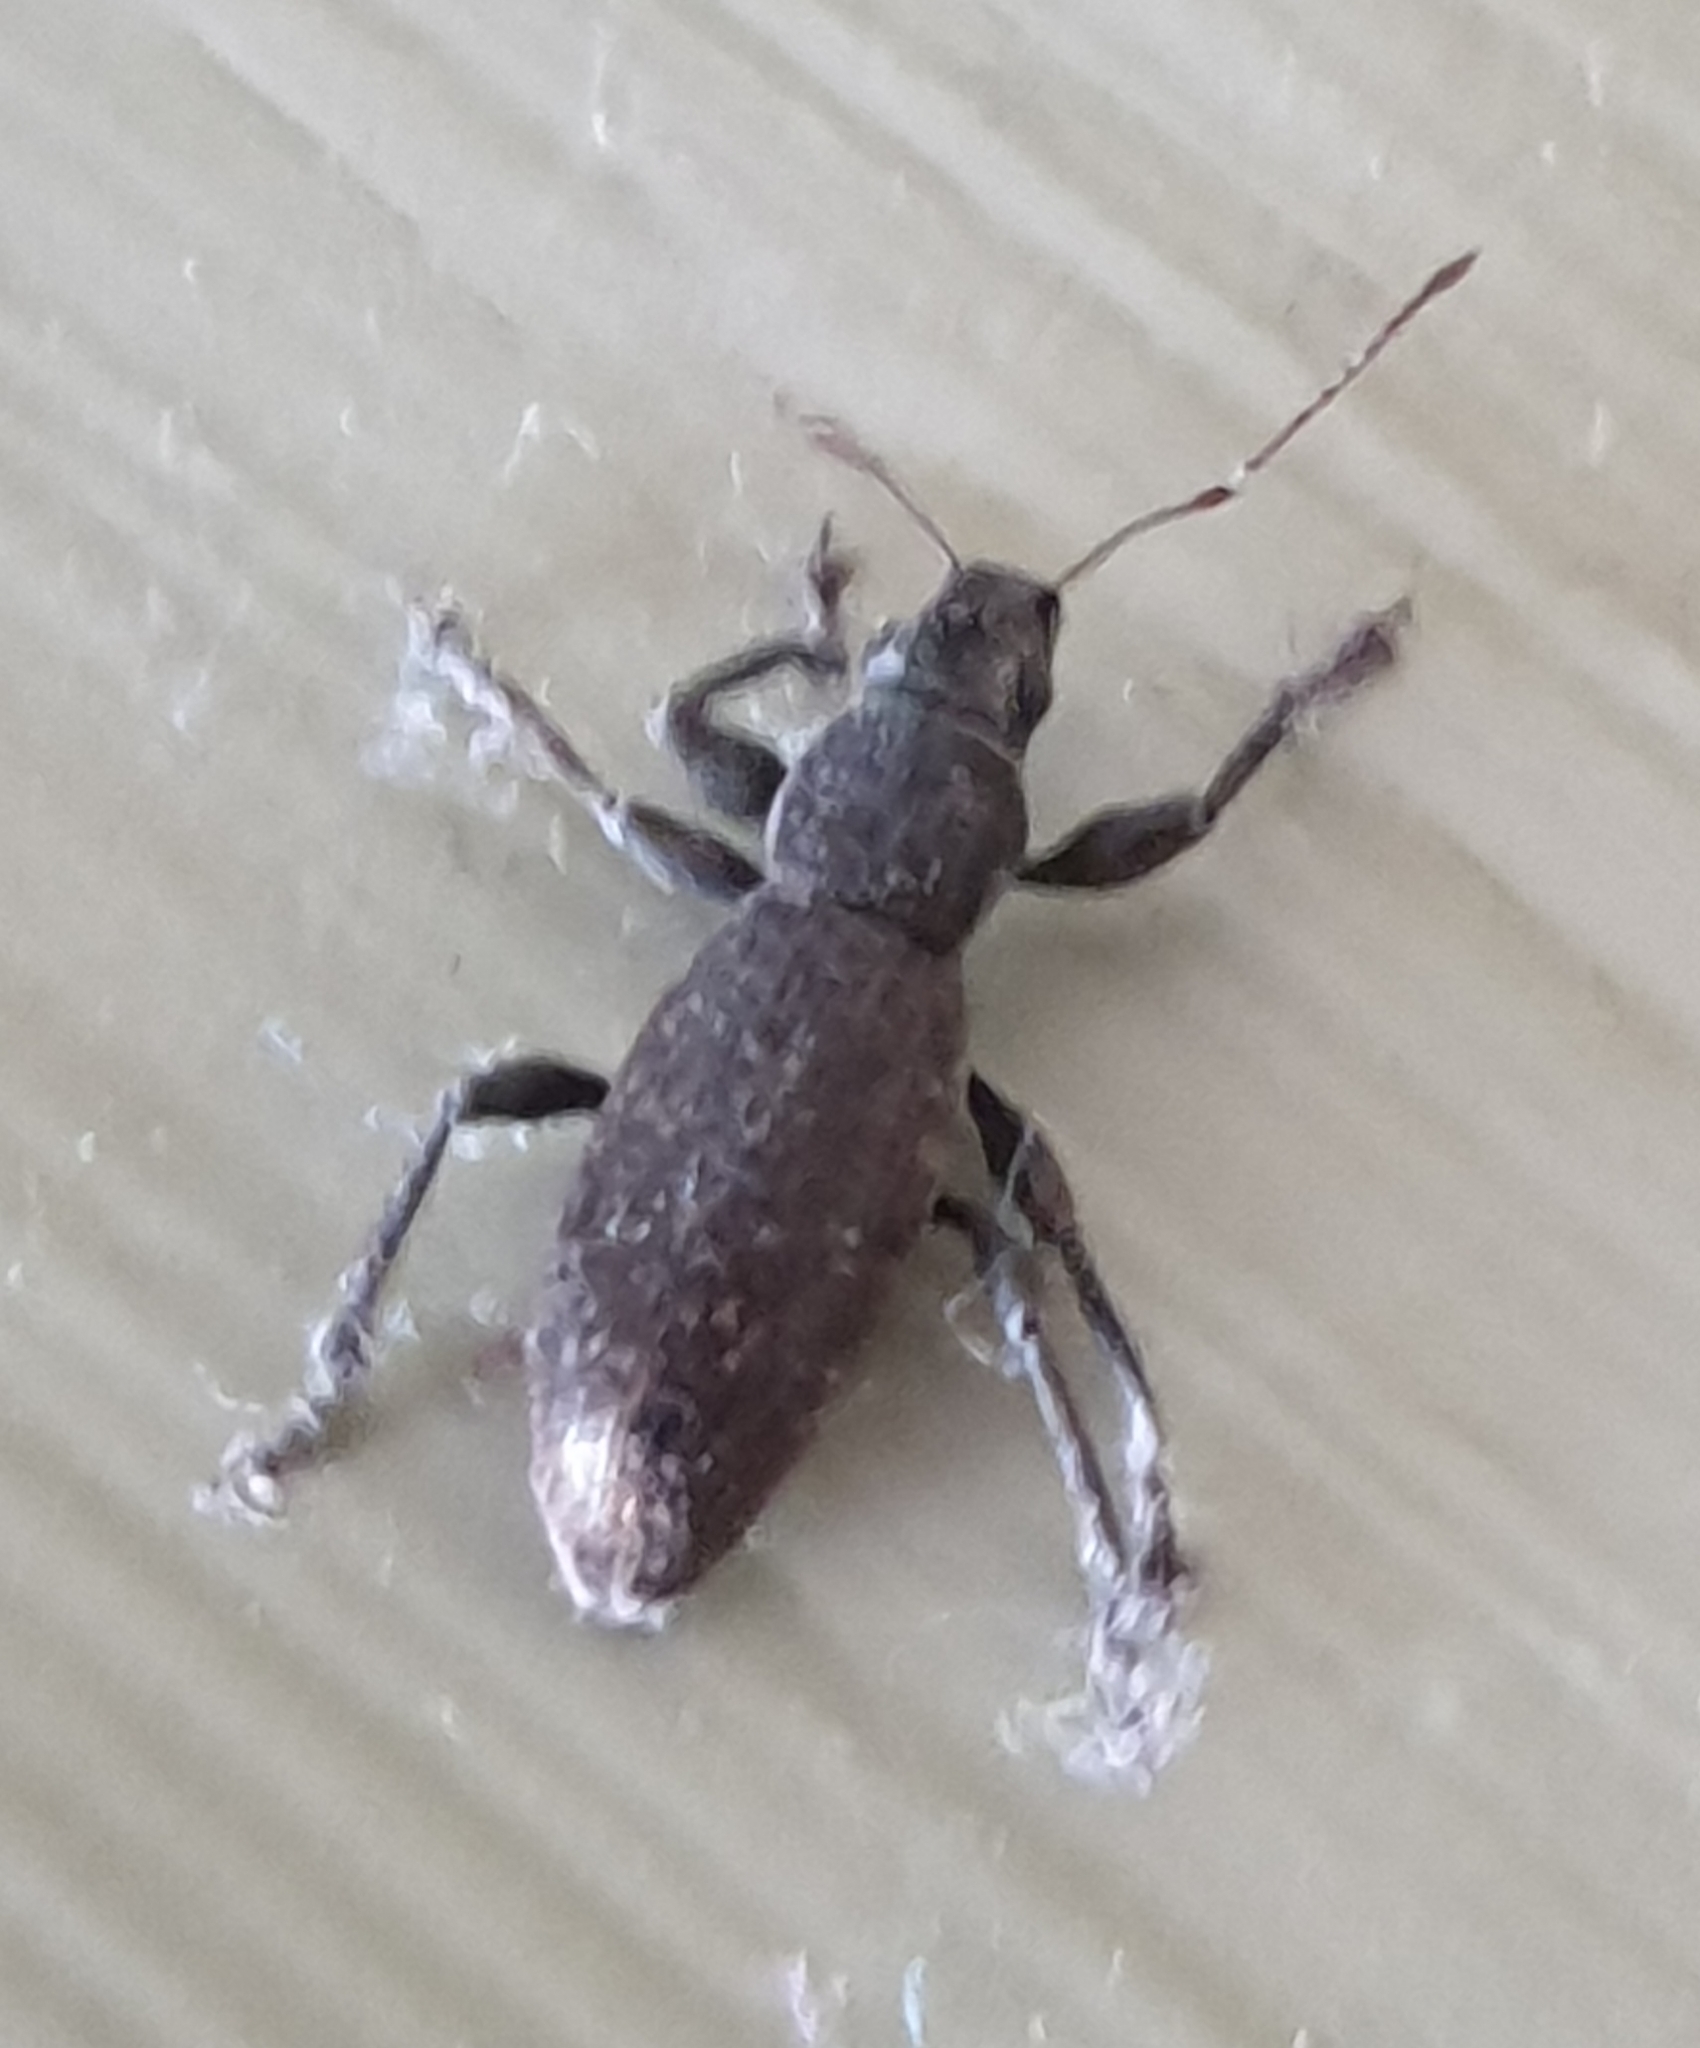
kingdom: Animalia
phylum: Arthropoda
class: Insecta
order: Coleoptera
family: Curculionidae
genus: Brachyderes
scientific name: Brachyderes incanus
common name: Weevil
